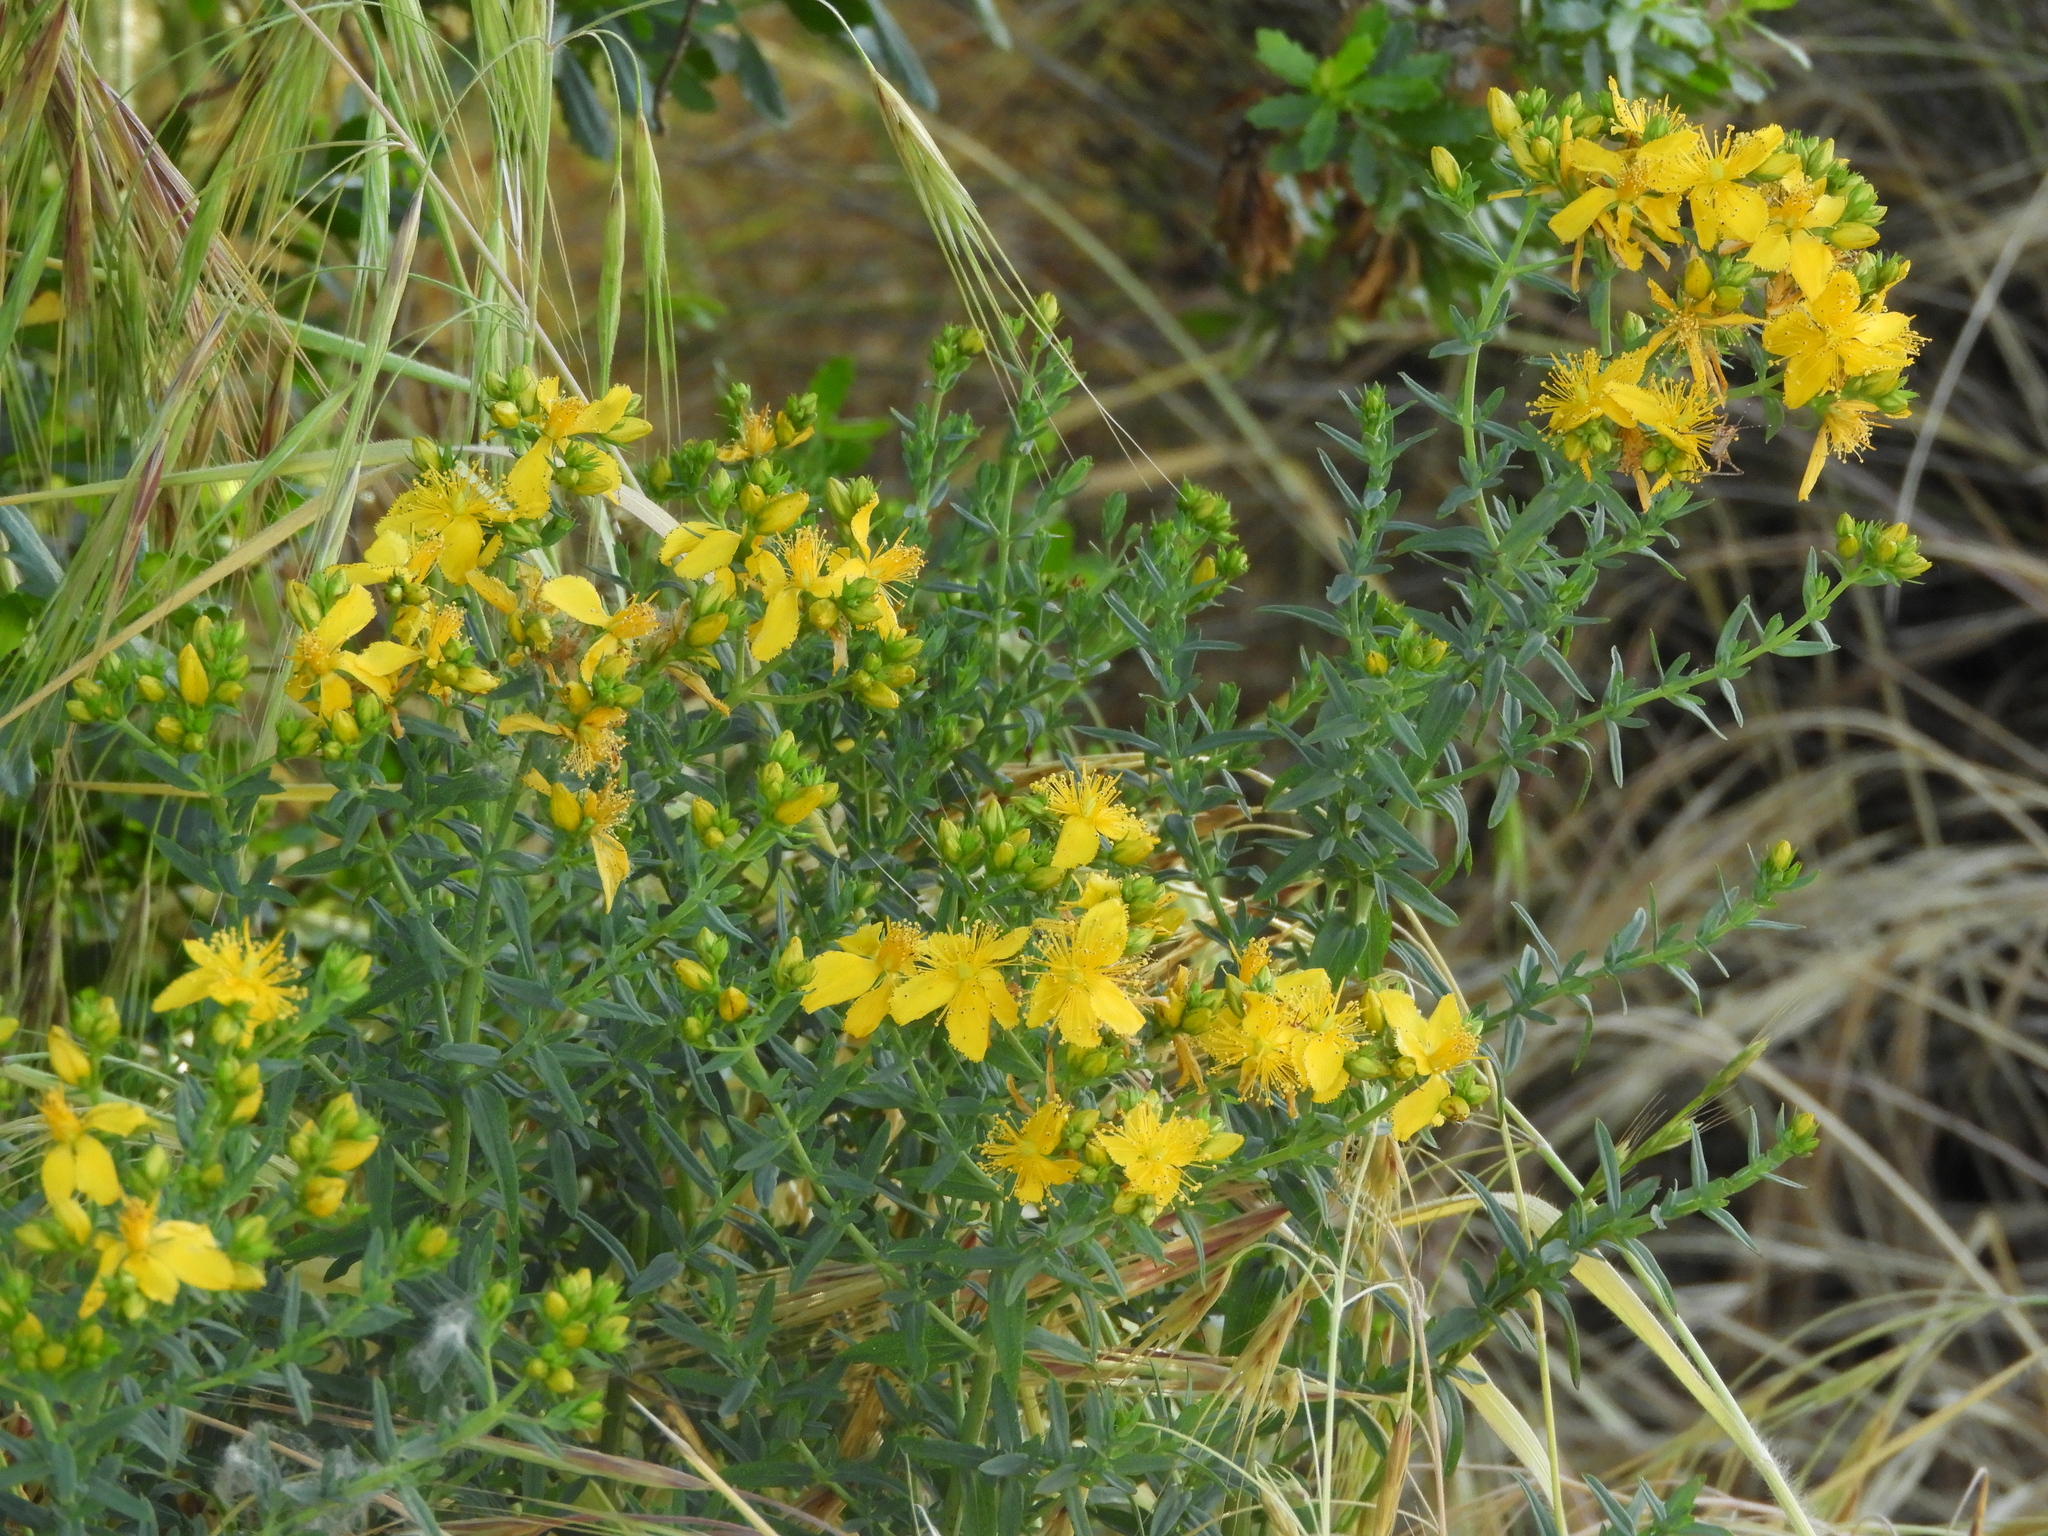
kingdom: Plantae
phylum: Tracheophyta
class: Magnoliopsida
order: Malpighiales
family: Hypericaceae
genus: Hypericum
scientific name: Hypericum perforatum
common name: Common st. johnswort
